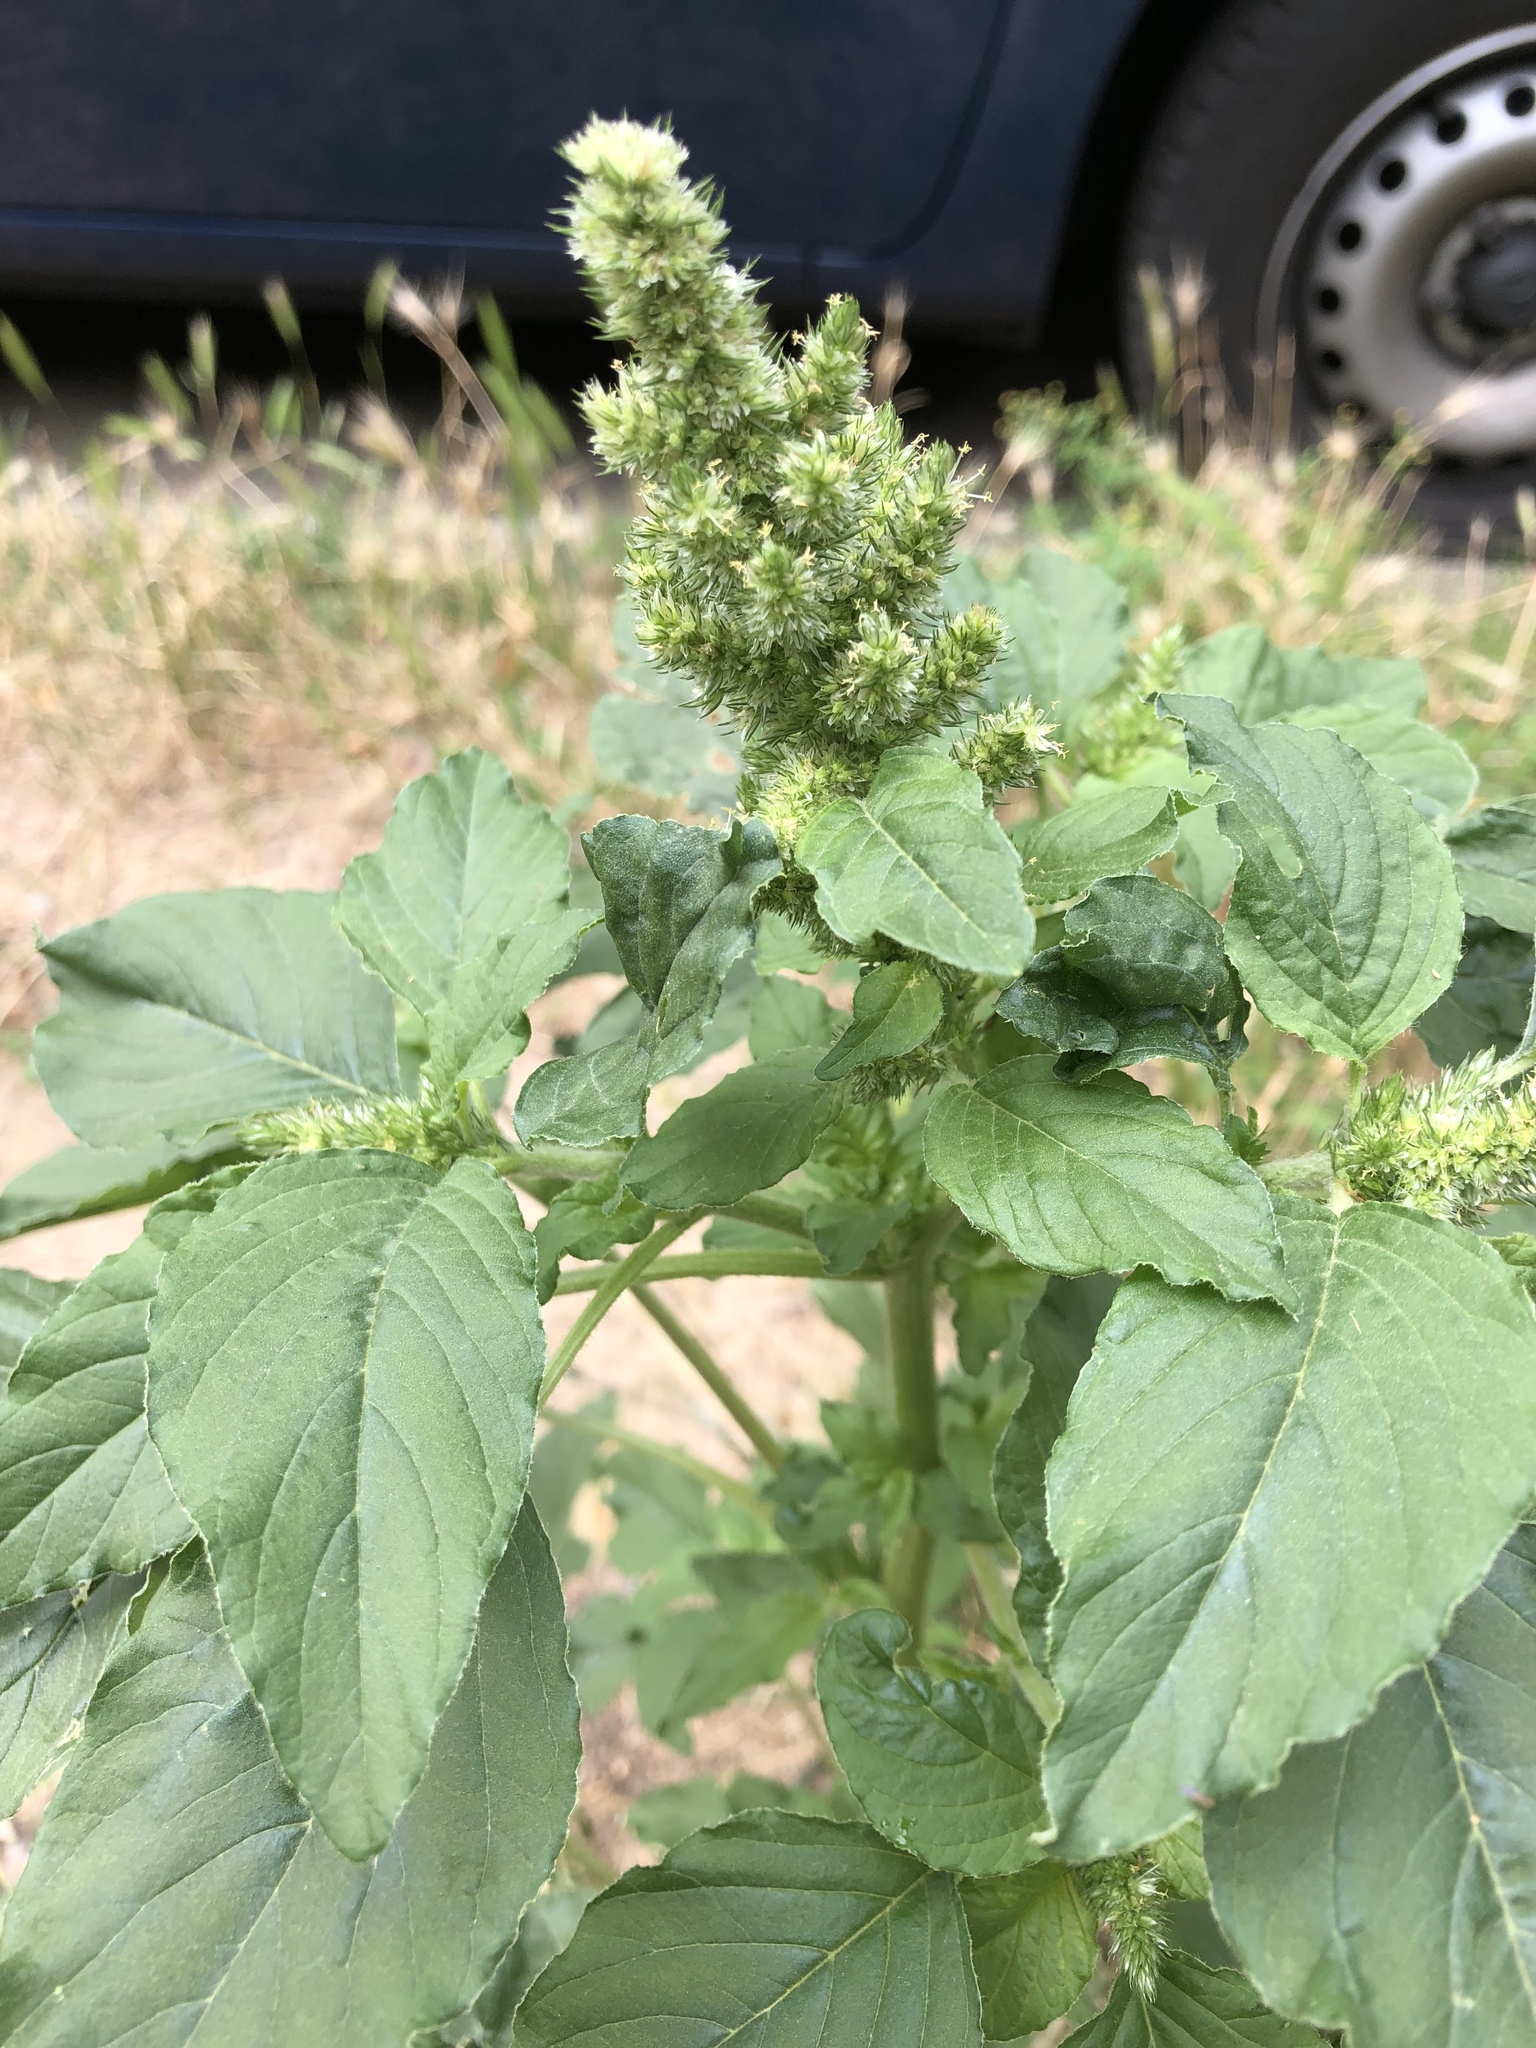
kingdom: Plantae
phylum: Tracheophyta
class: Magnoliopsida
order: Caryophyllales
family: Amaranthaceae
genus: Amaranthus
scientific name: Amaranthus retroflexus
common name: Redroot amaranth
